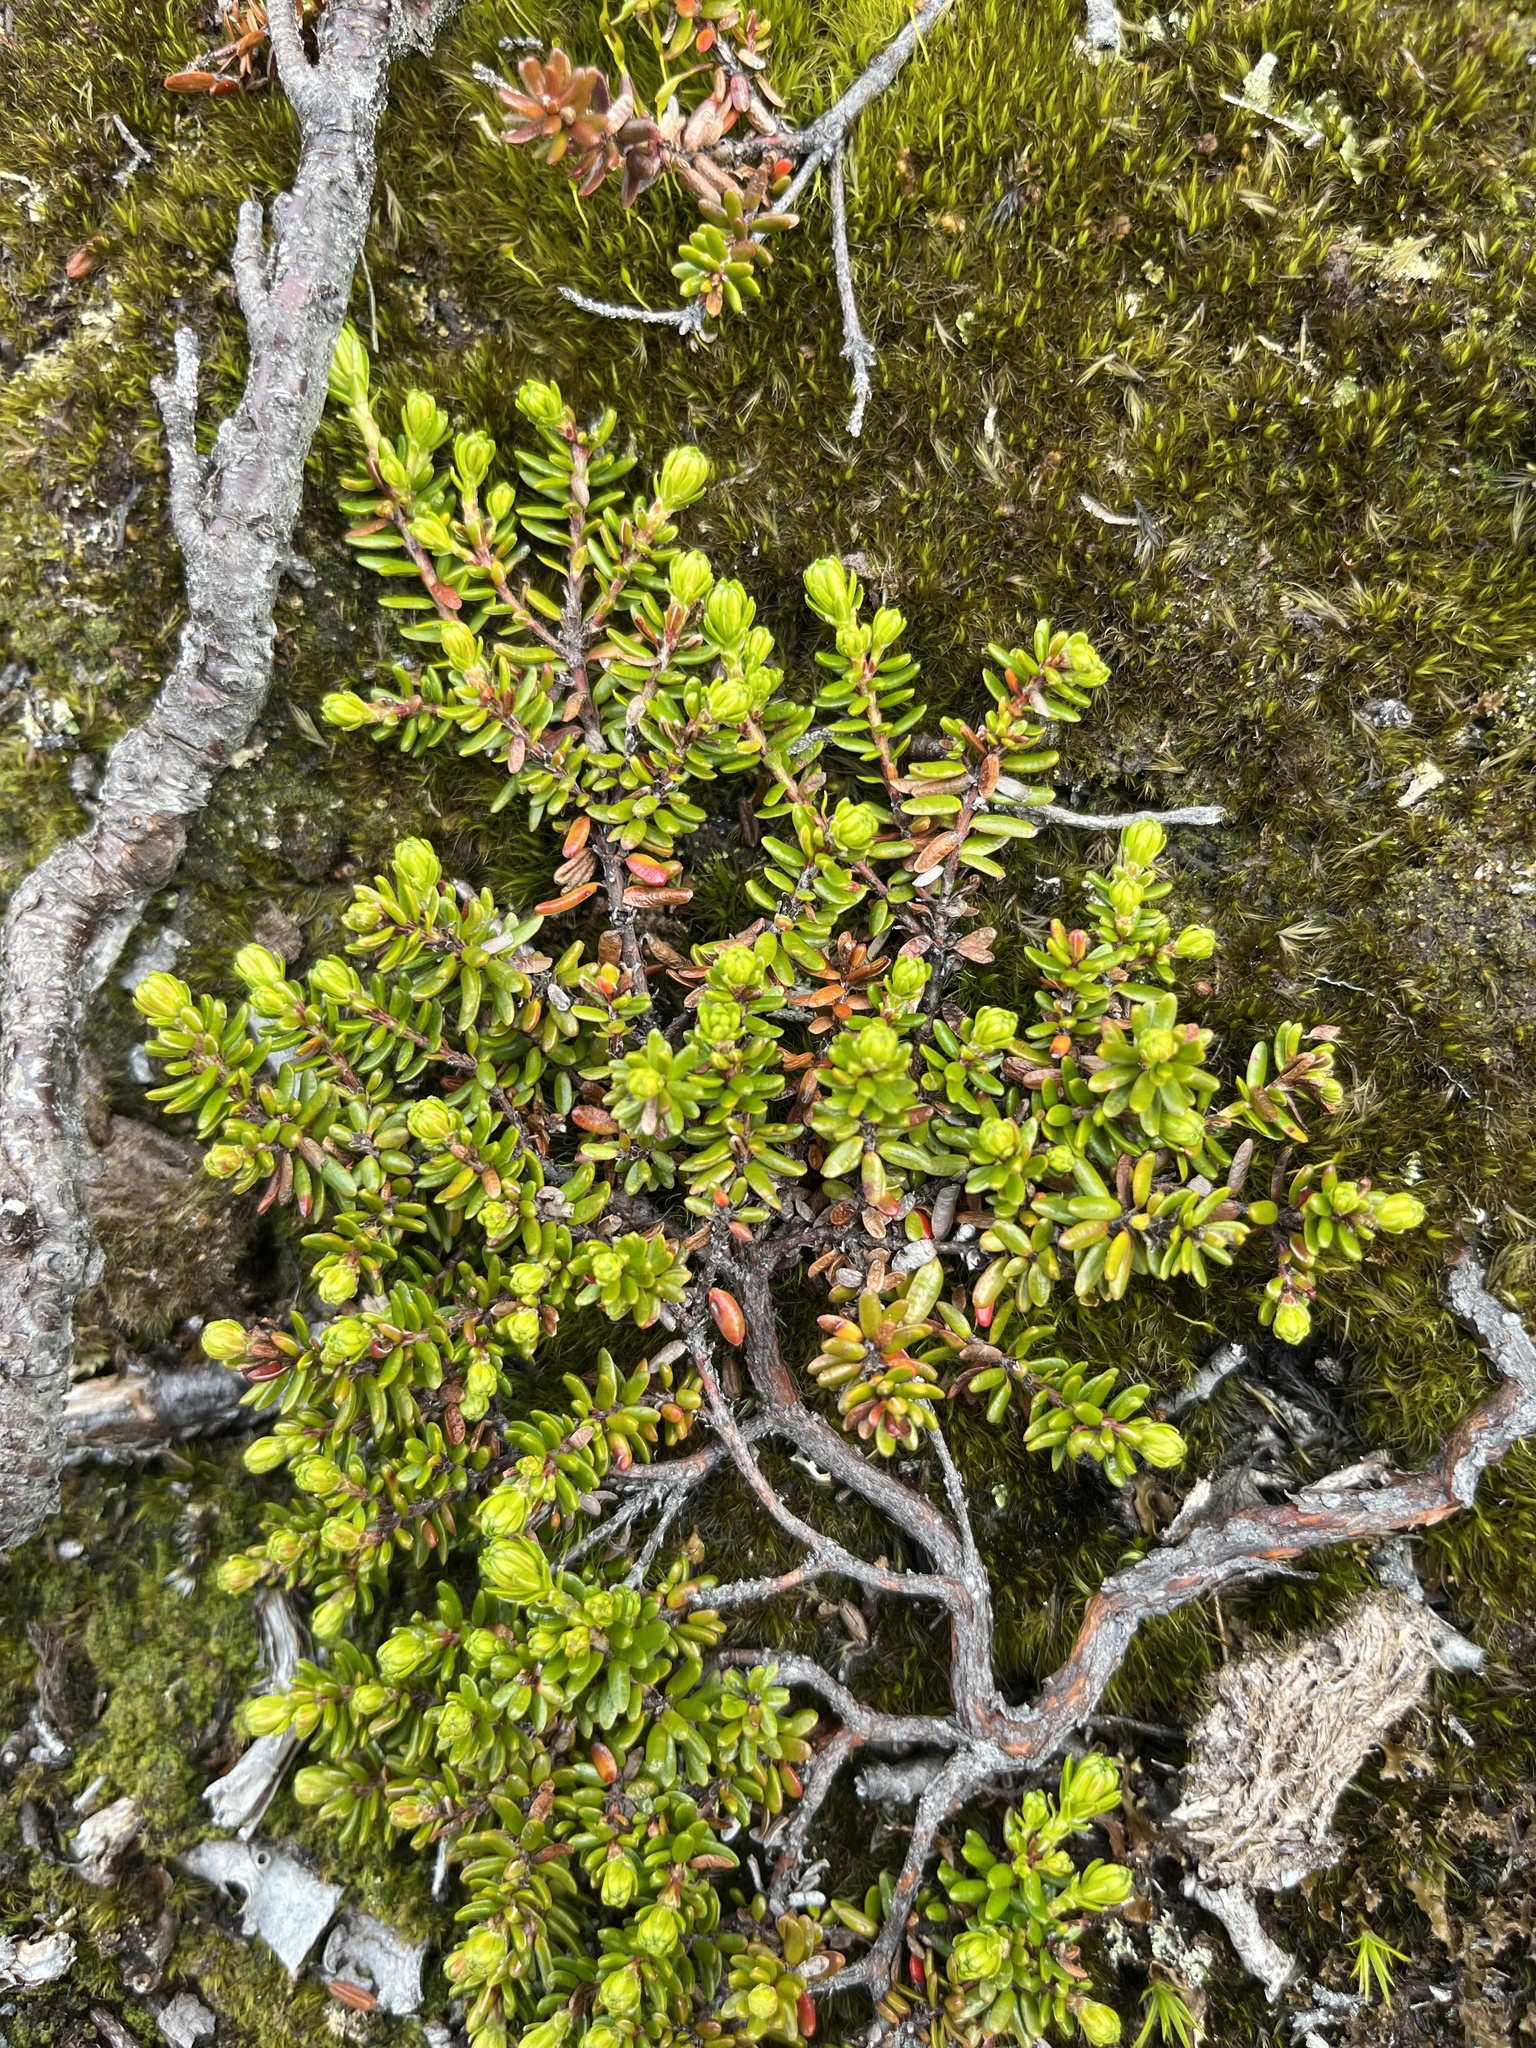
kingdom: Plantae
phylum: Tracheophyta
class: Magnoliopsida
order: Ericales
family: Ericaceae
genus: Empetrum
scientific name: Empetrum hermaphroditum
